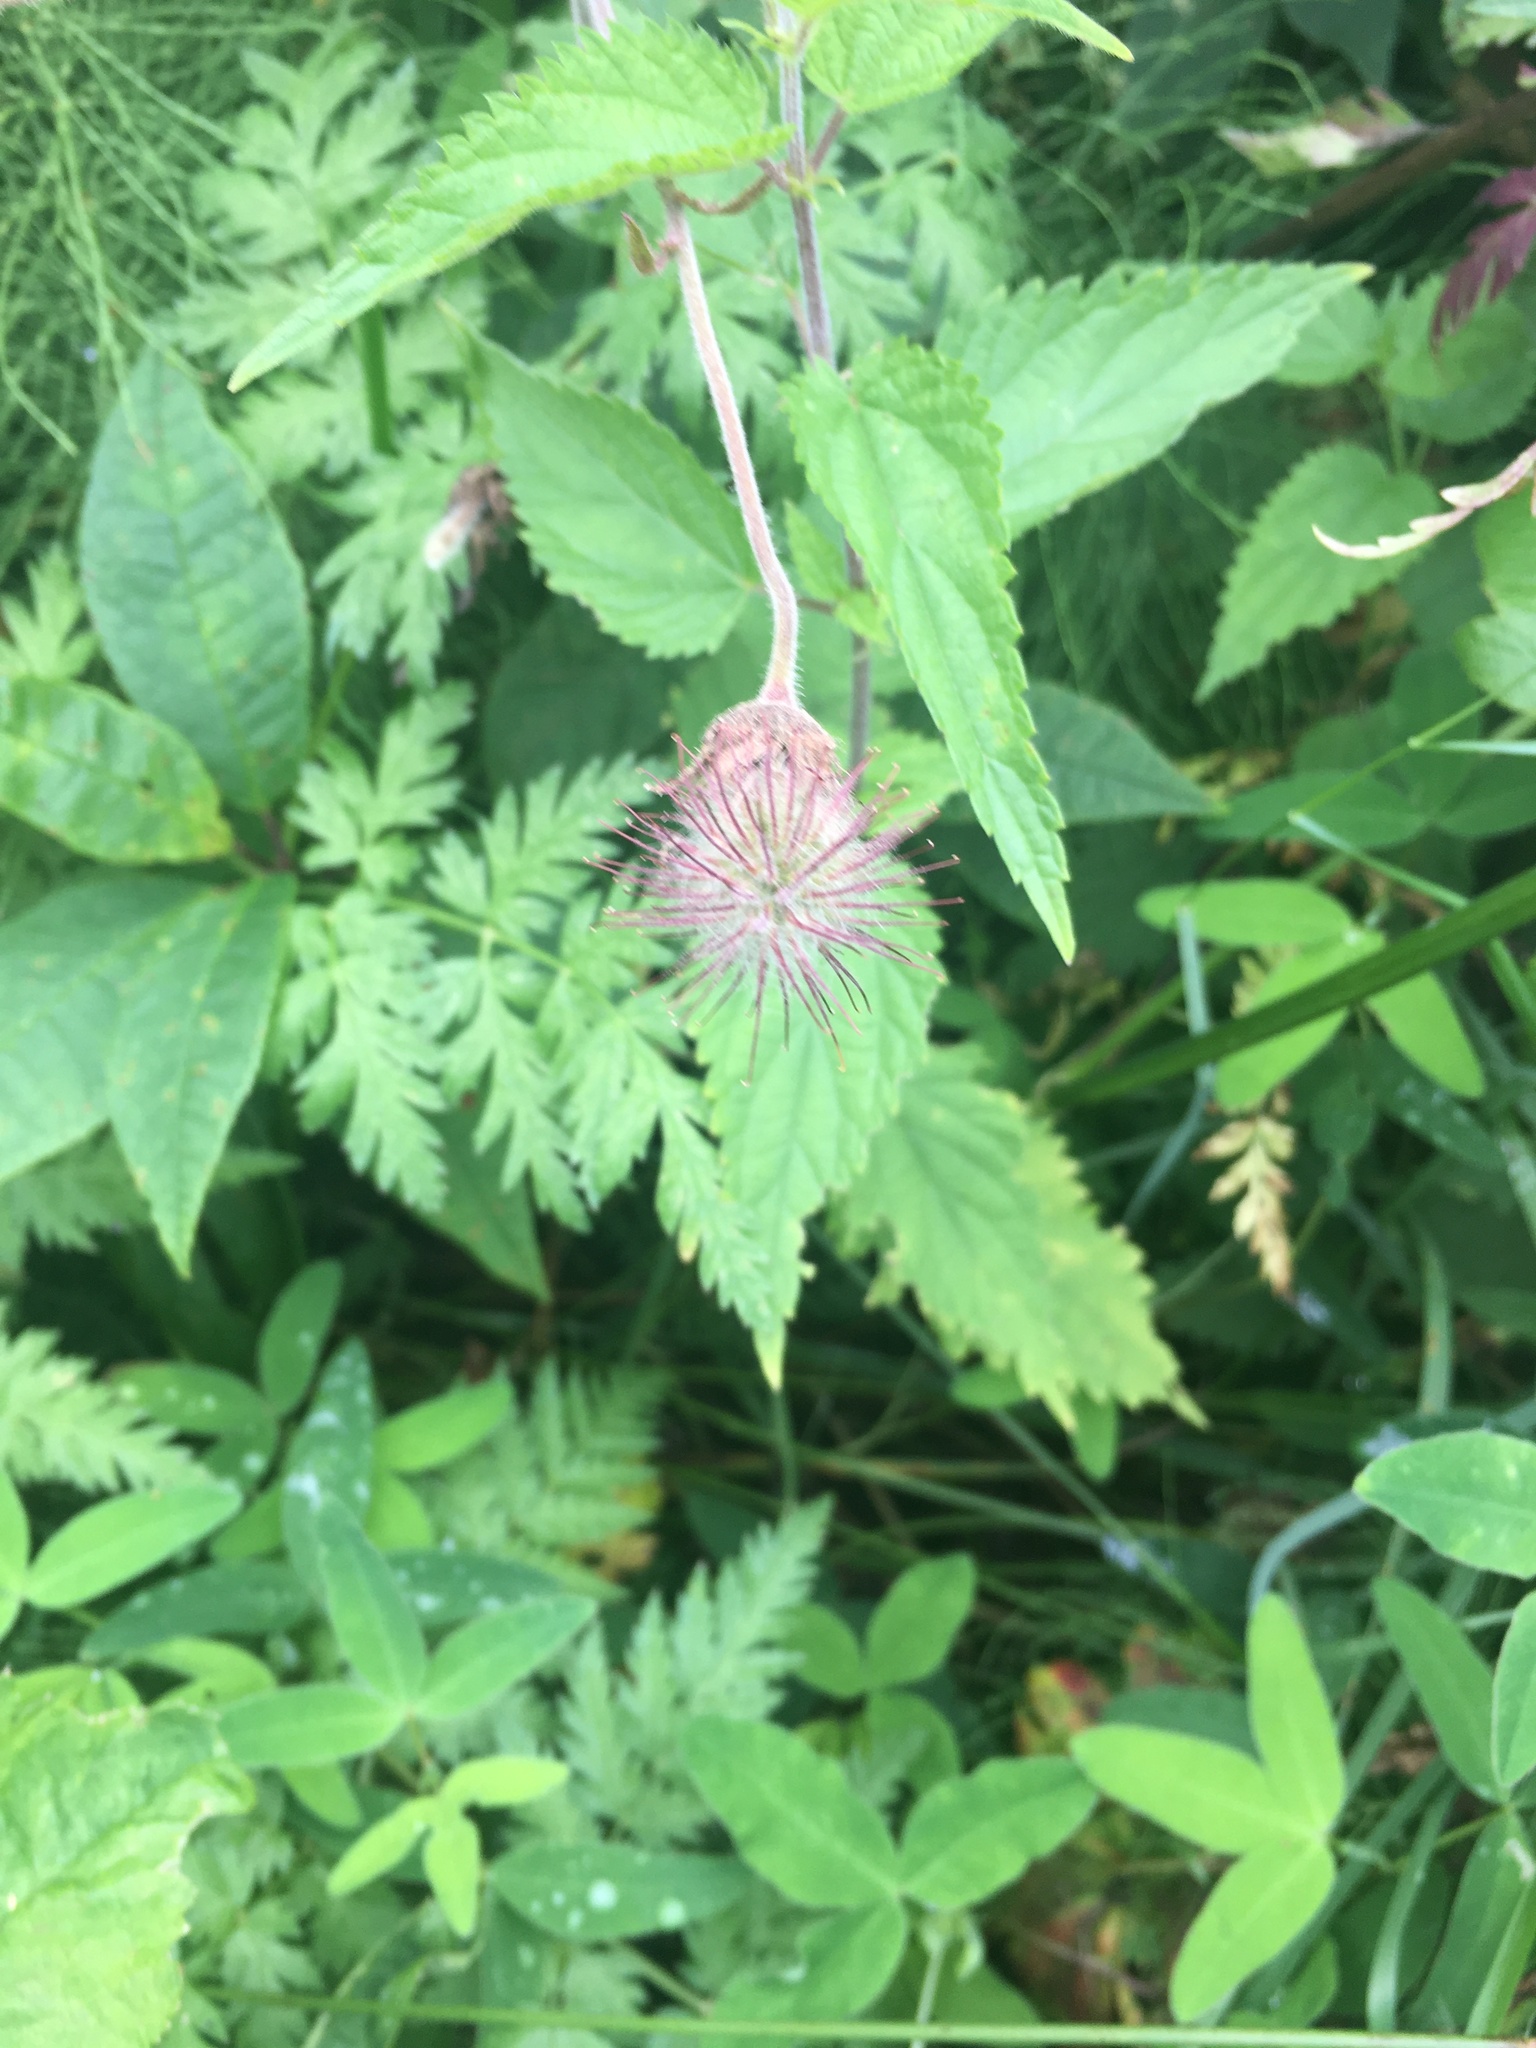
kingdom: Plantae
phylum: Tracheophyta
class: Magnoliopsida
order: Rosales
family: Rosaceae
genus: Geum
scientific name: Geum rivale
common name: Water avens
